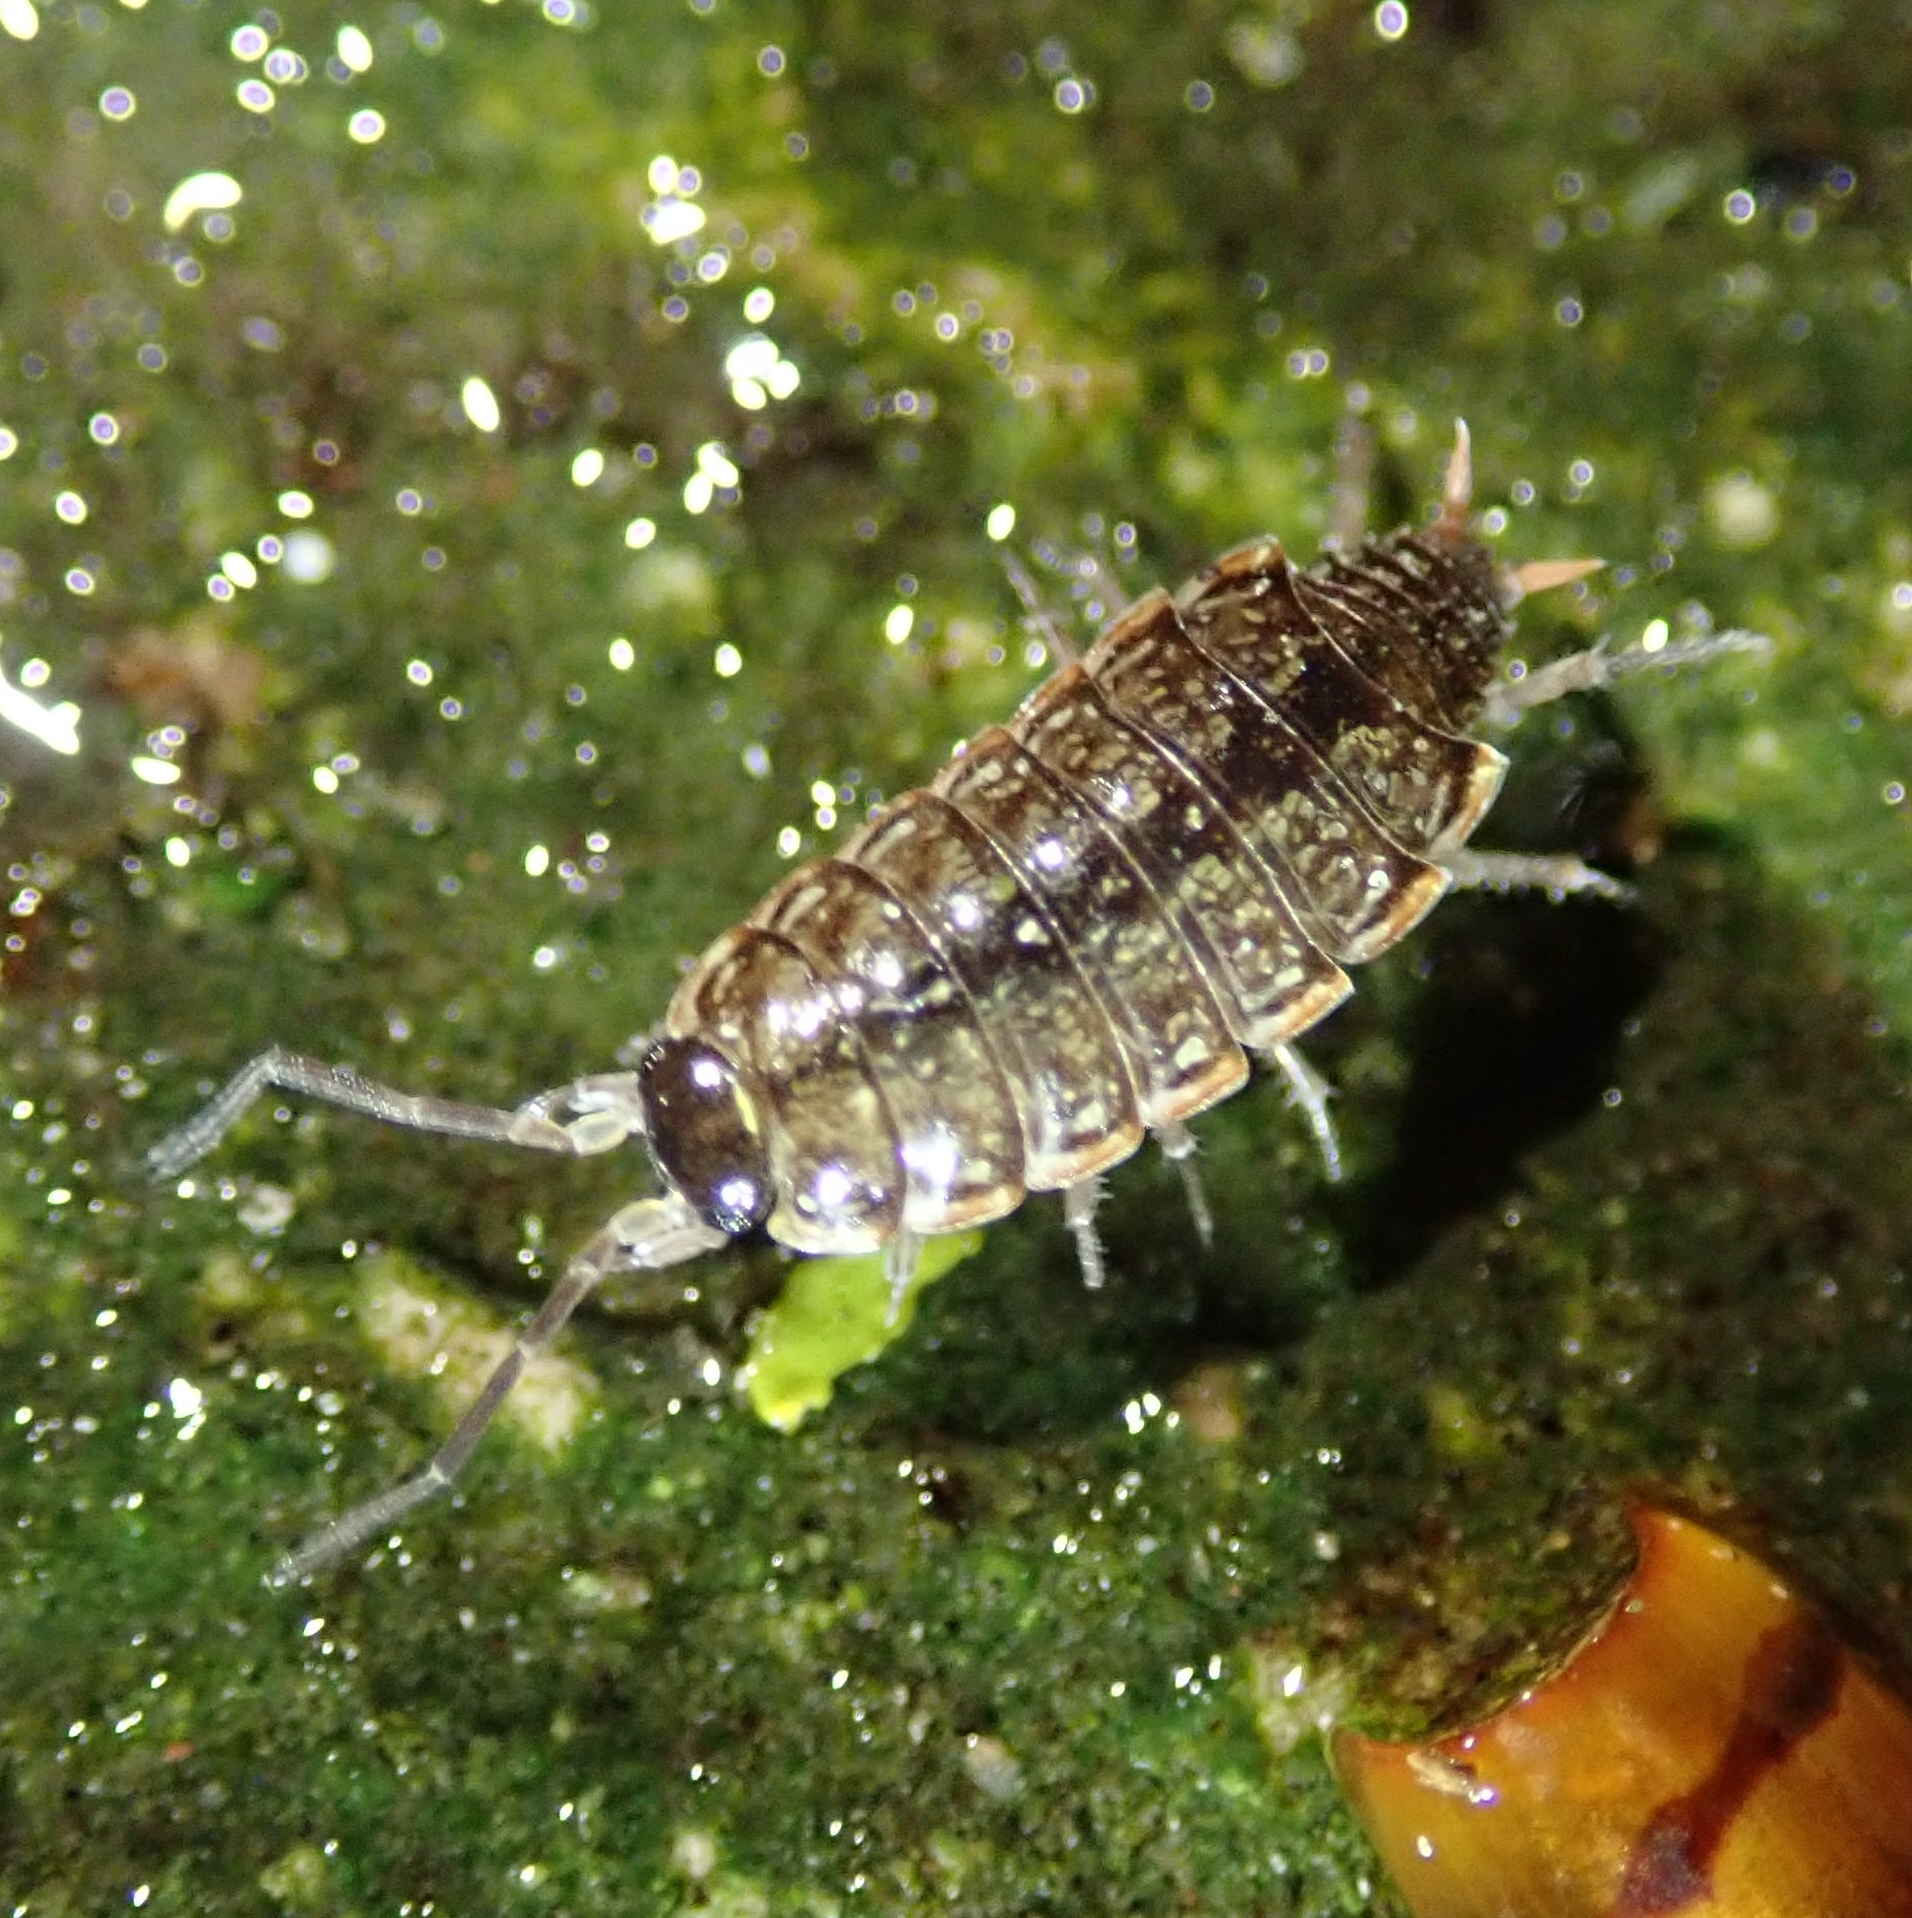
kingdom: Animalia
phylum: Arthropoda
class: Malacostraca
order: Isopoda
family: Philosciidae
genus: Philoscia
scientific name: Philoscia muscorum
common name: Common striped woodlouse
